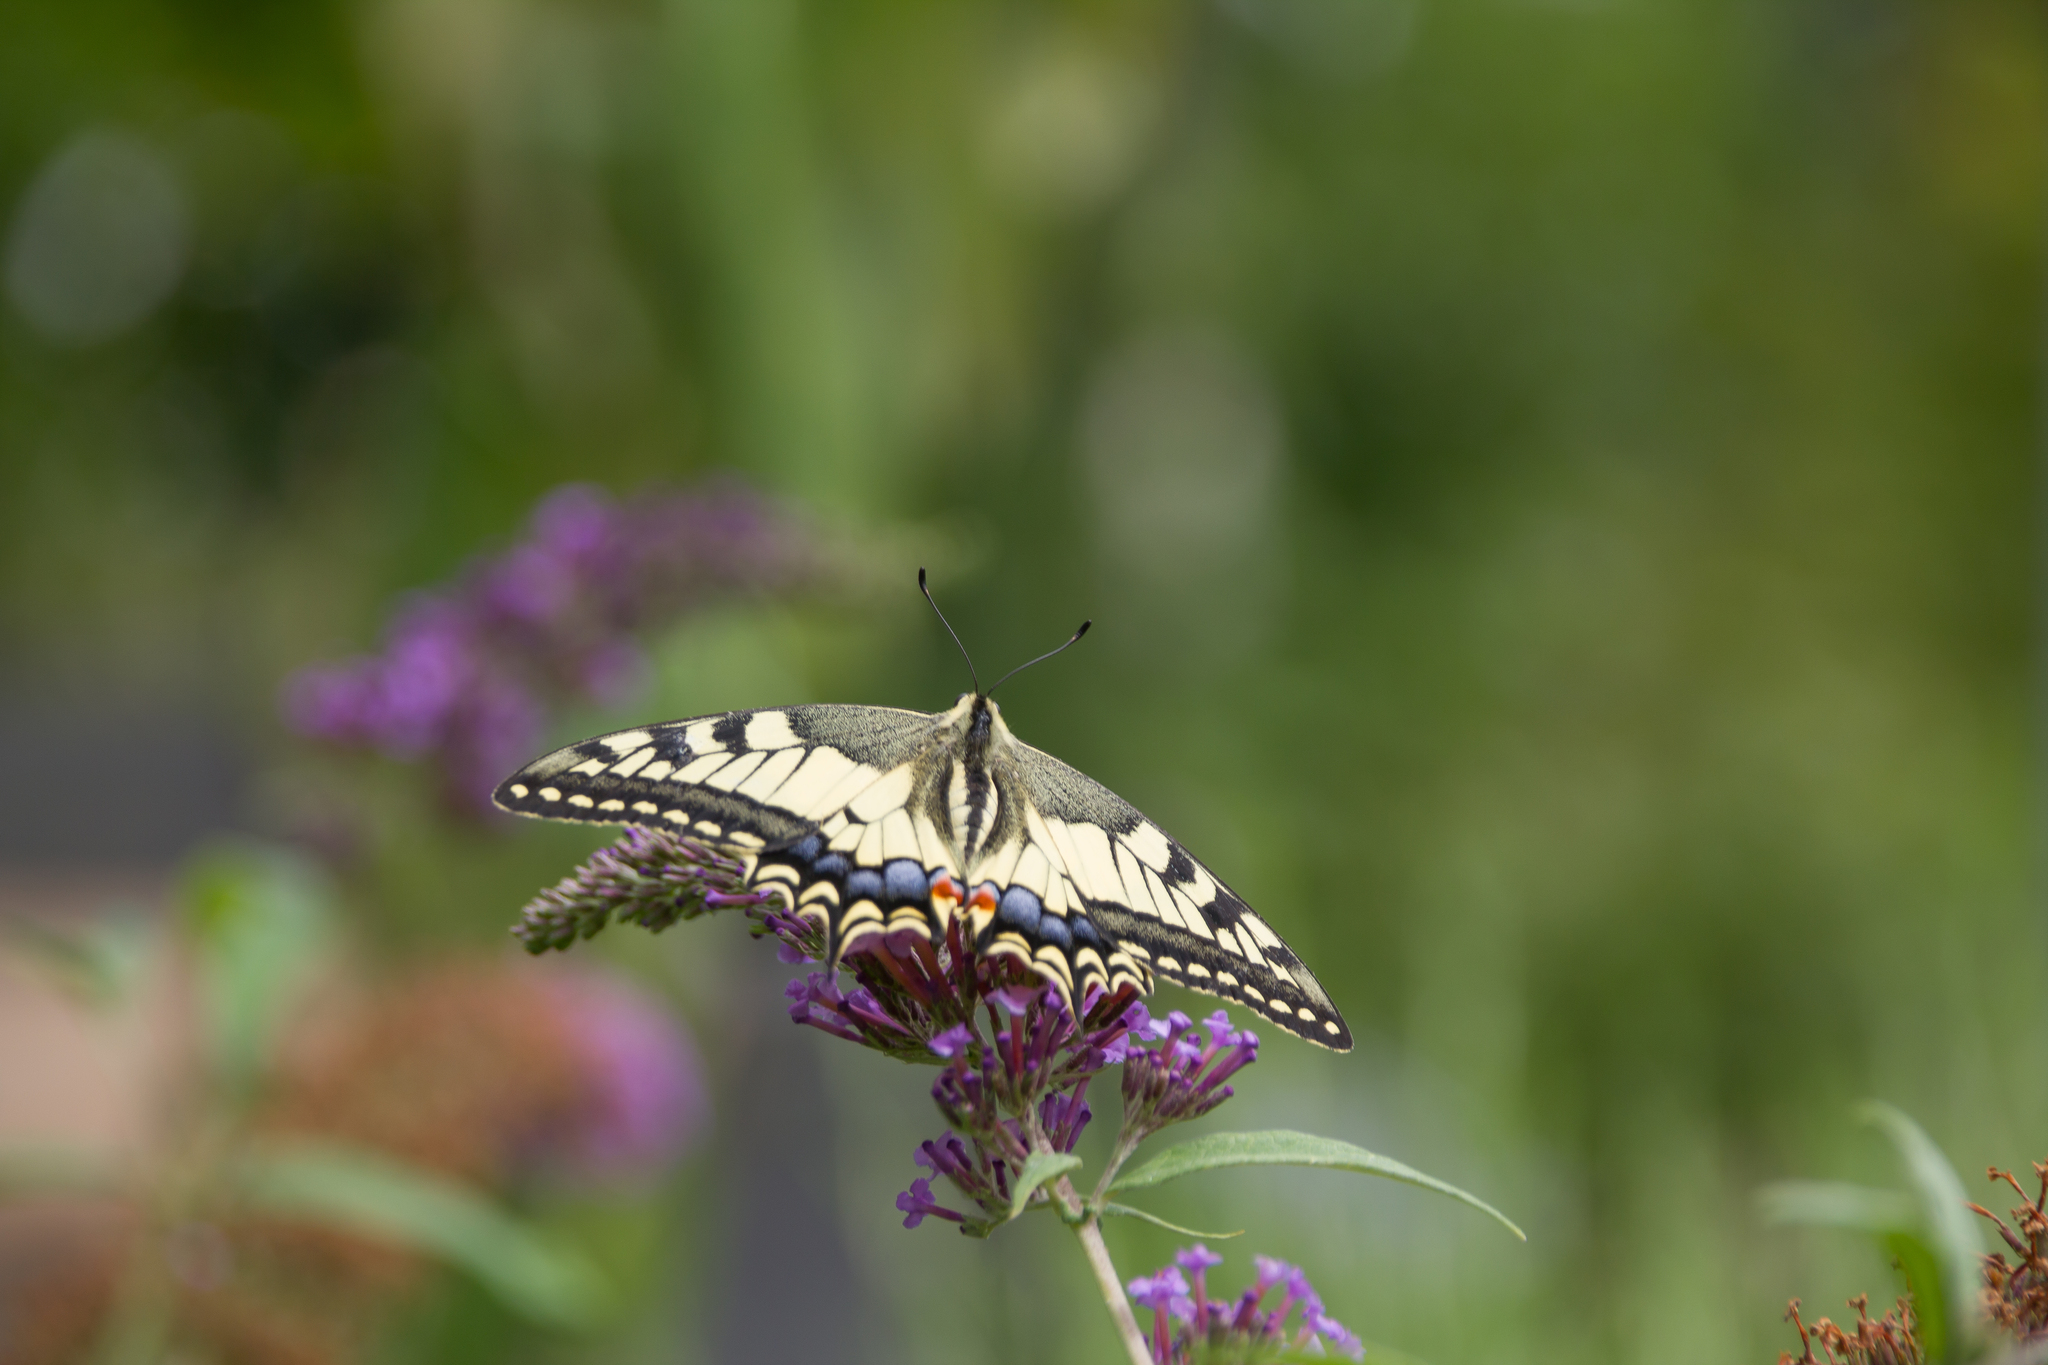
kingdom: Animalia
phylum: Arthropoda
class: Insecta
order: Lepidoptera
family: Papilionidae
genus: Papilio
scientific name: Papilio machaon
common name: Swallowtail
